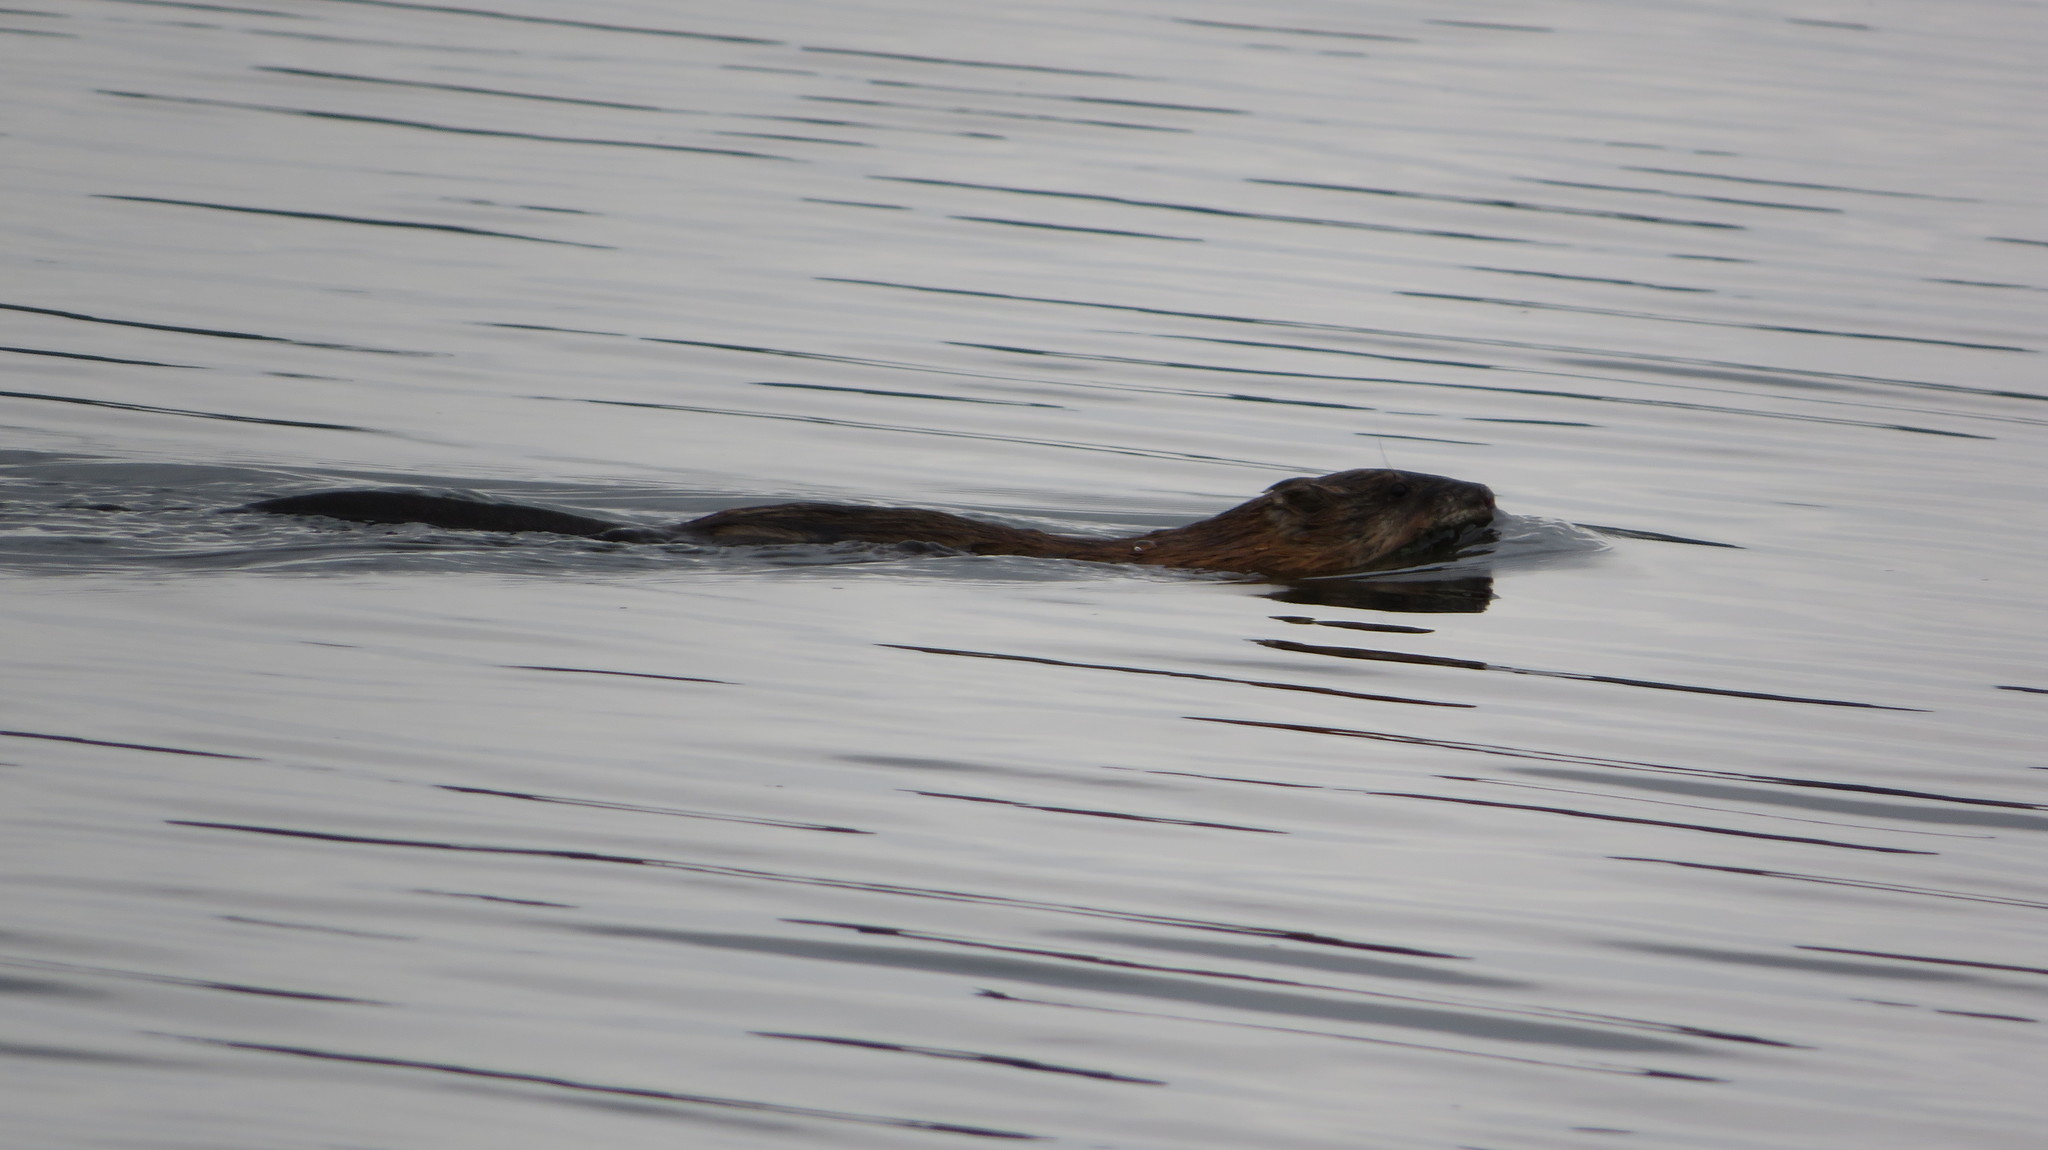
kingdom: Animalia
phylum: Chordata
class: Mammalia
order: Rodentia
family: Cricetidae
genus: Ondatra
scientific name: Ondatra zibethicus
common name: Muskrat
